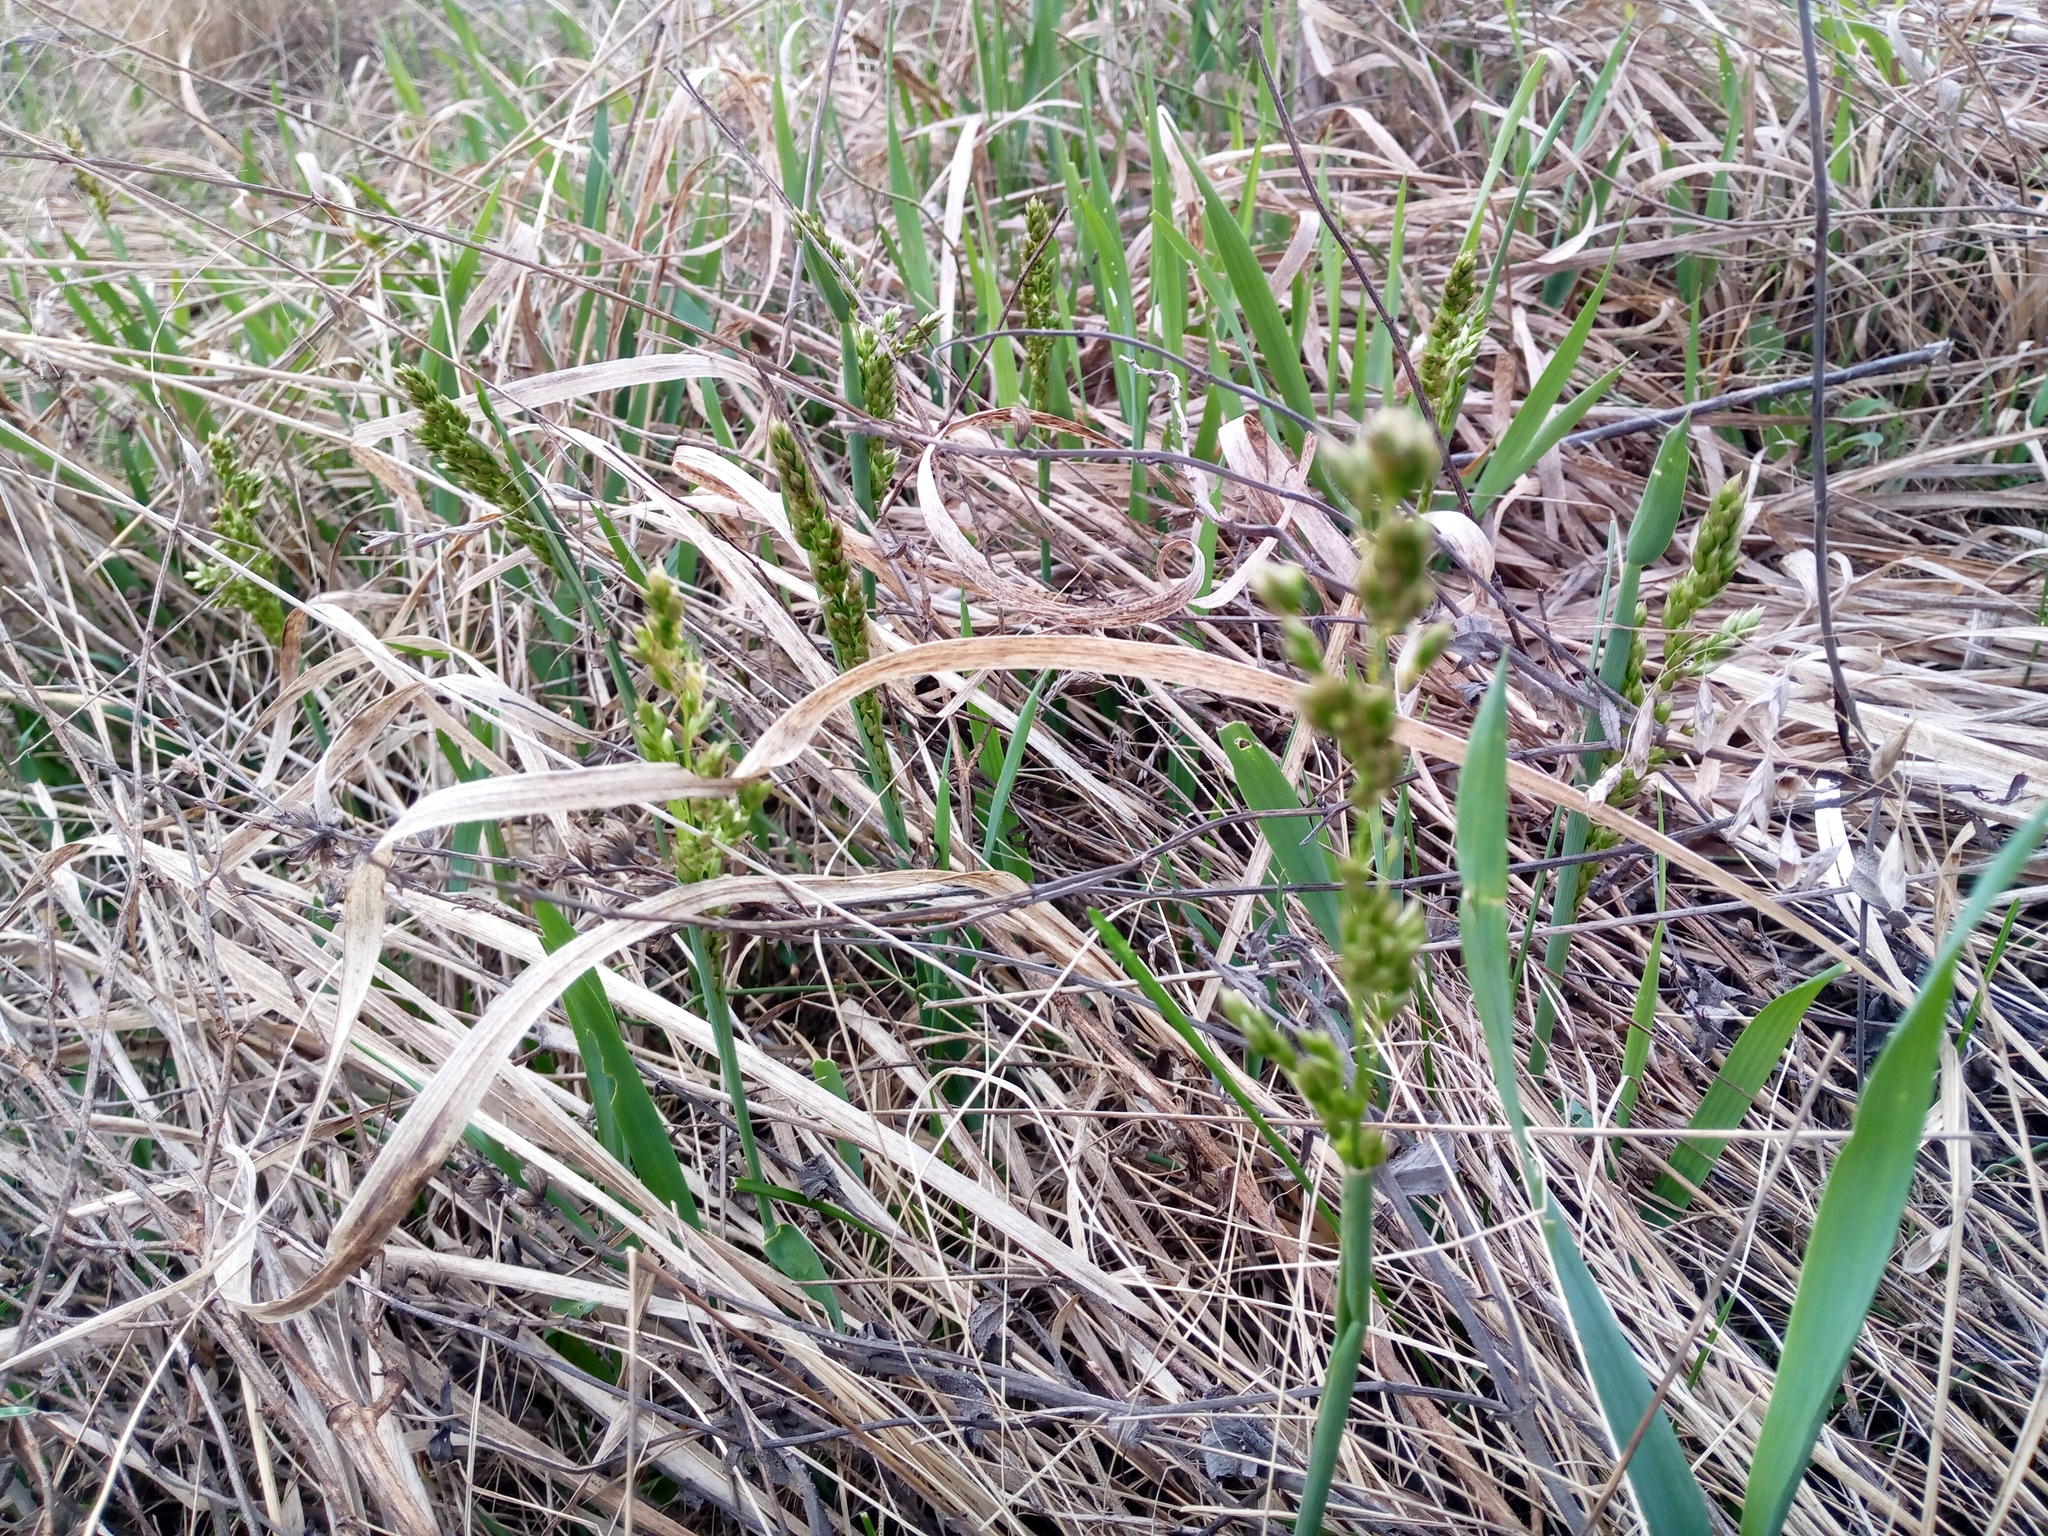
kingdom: Plantae
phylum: Tracheophyta
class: Liliopsida
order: Poales
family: Poaceae
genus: Anthoxanthum
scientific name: Anthoxanthum repens
